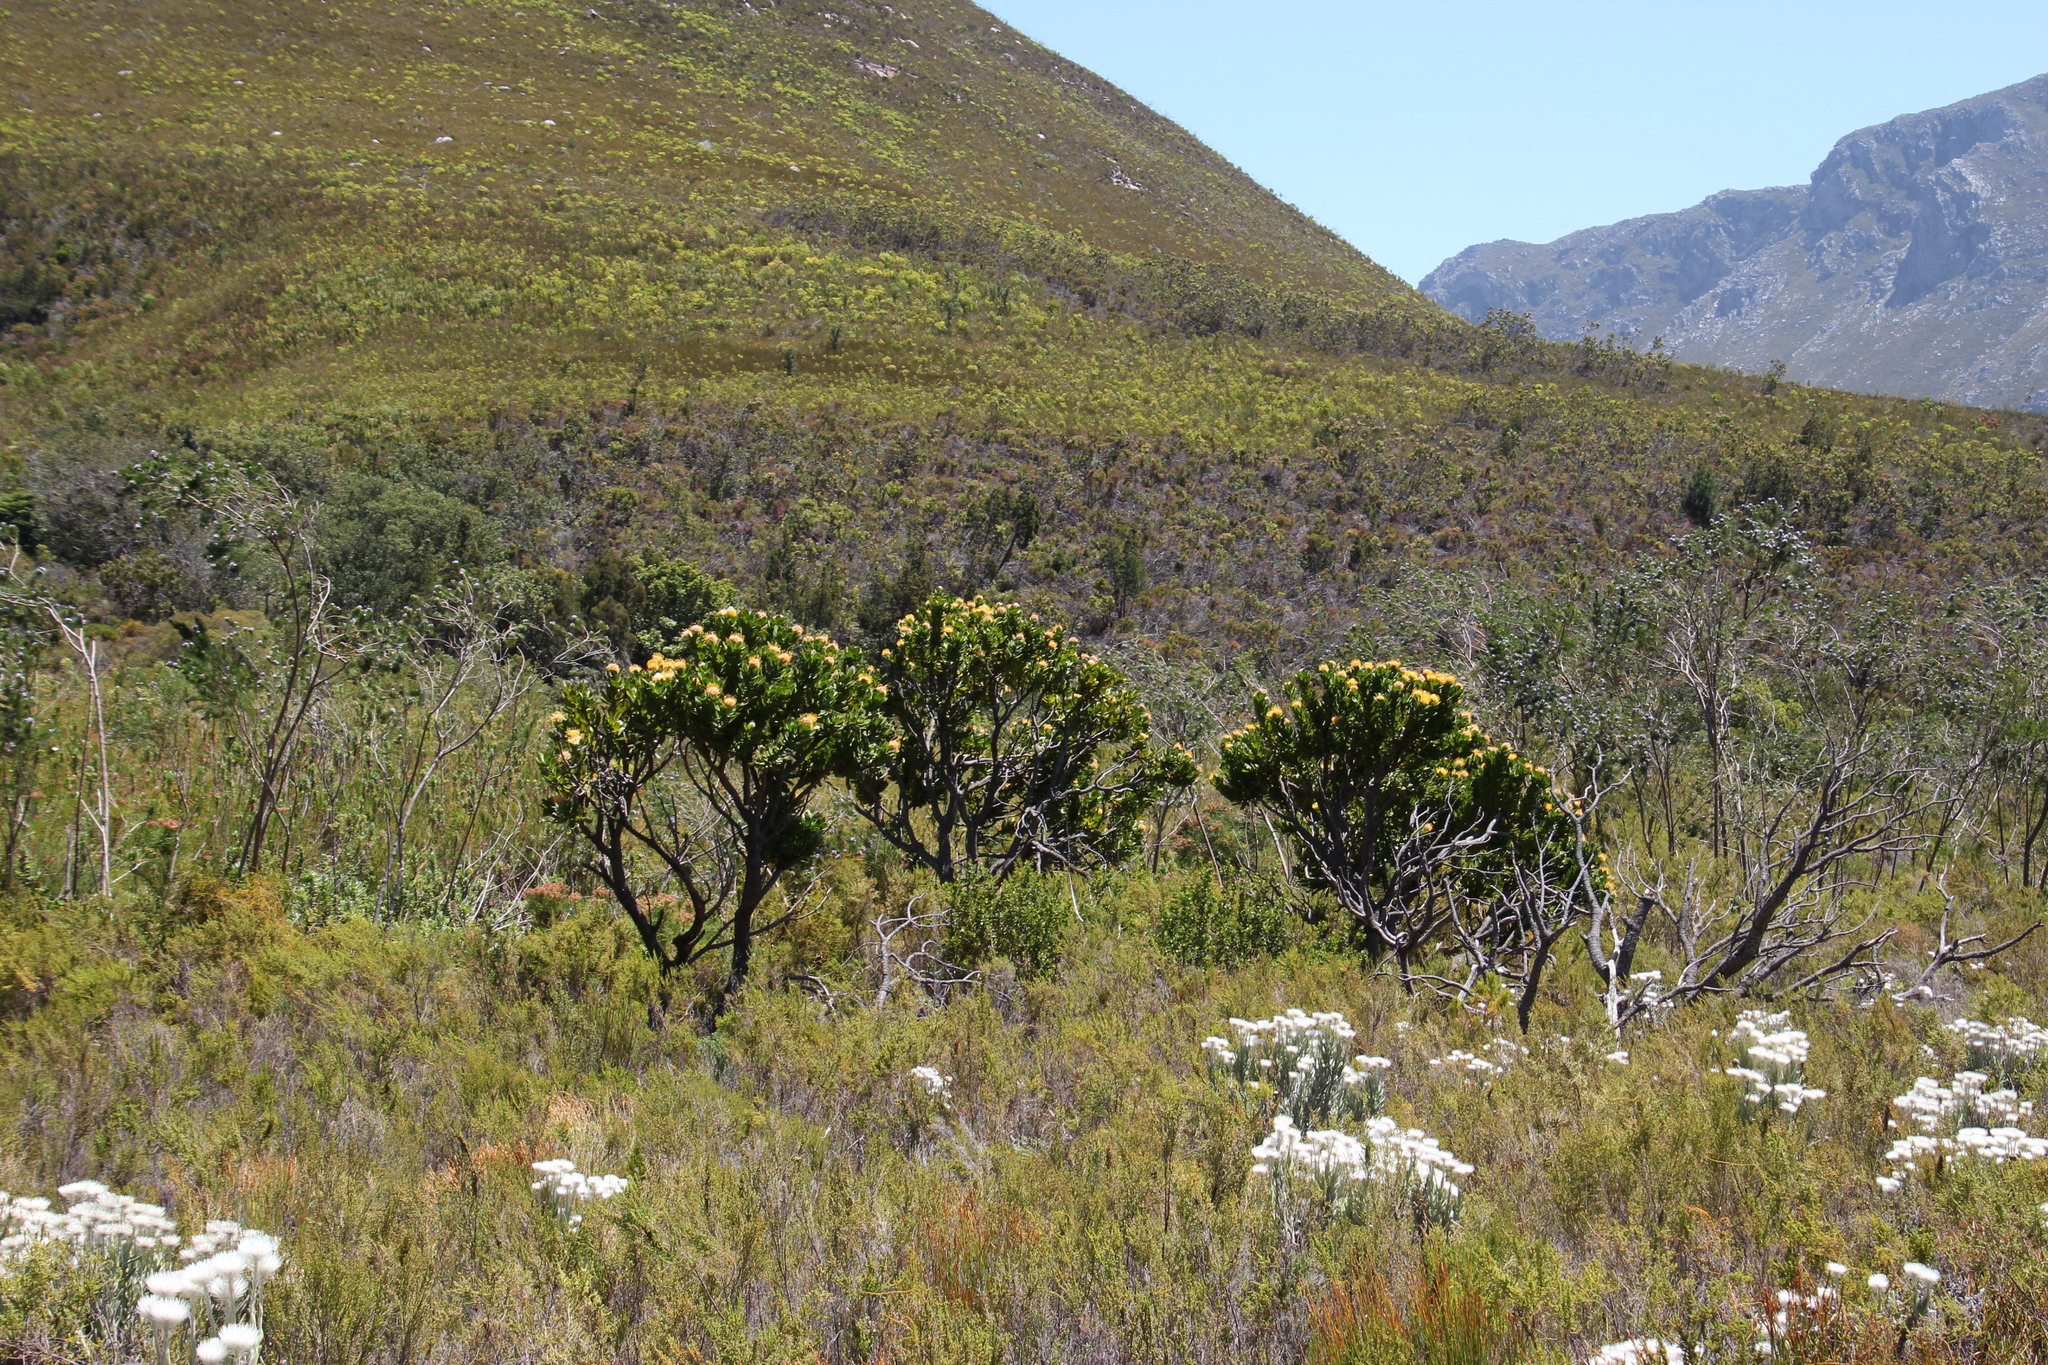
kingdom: Plantae
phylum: Tracheophyta
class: Magnoliopsida
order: Proteales
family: Proteaceae
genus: Leucospermum
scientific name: Leucospermum conocarpodendron
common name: Tree pincushion
